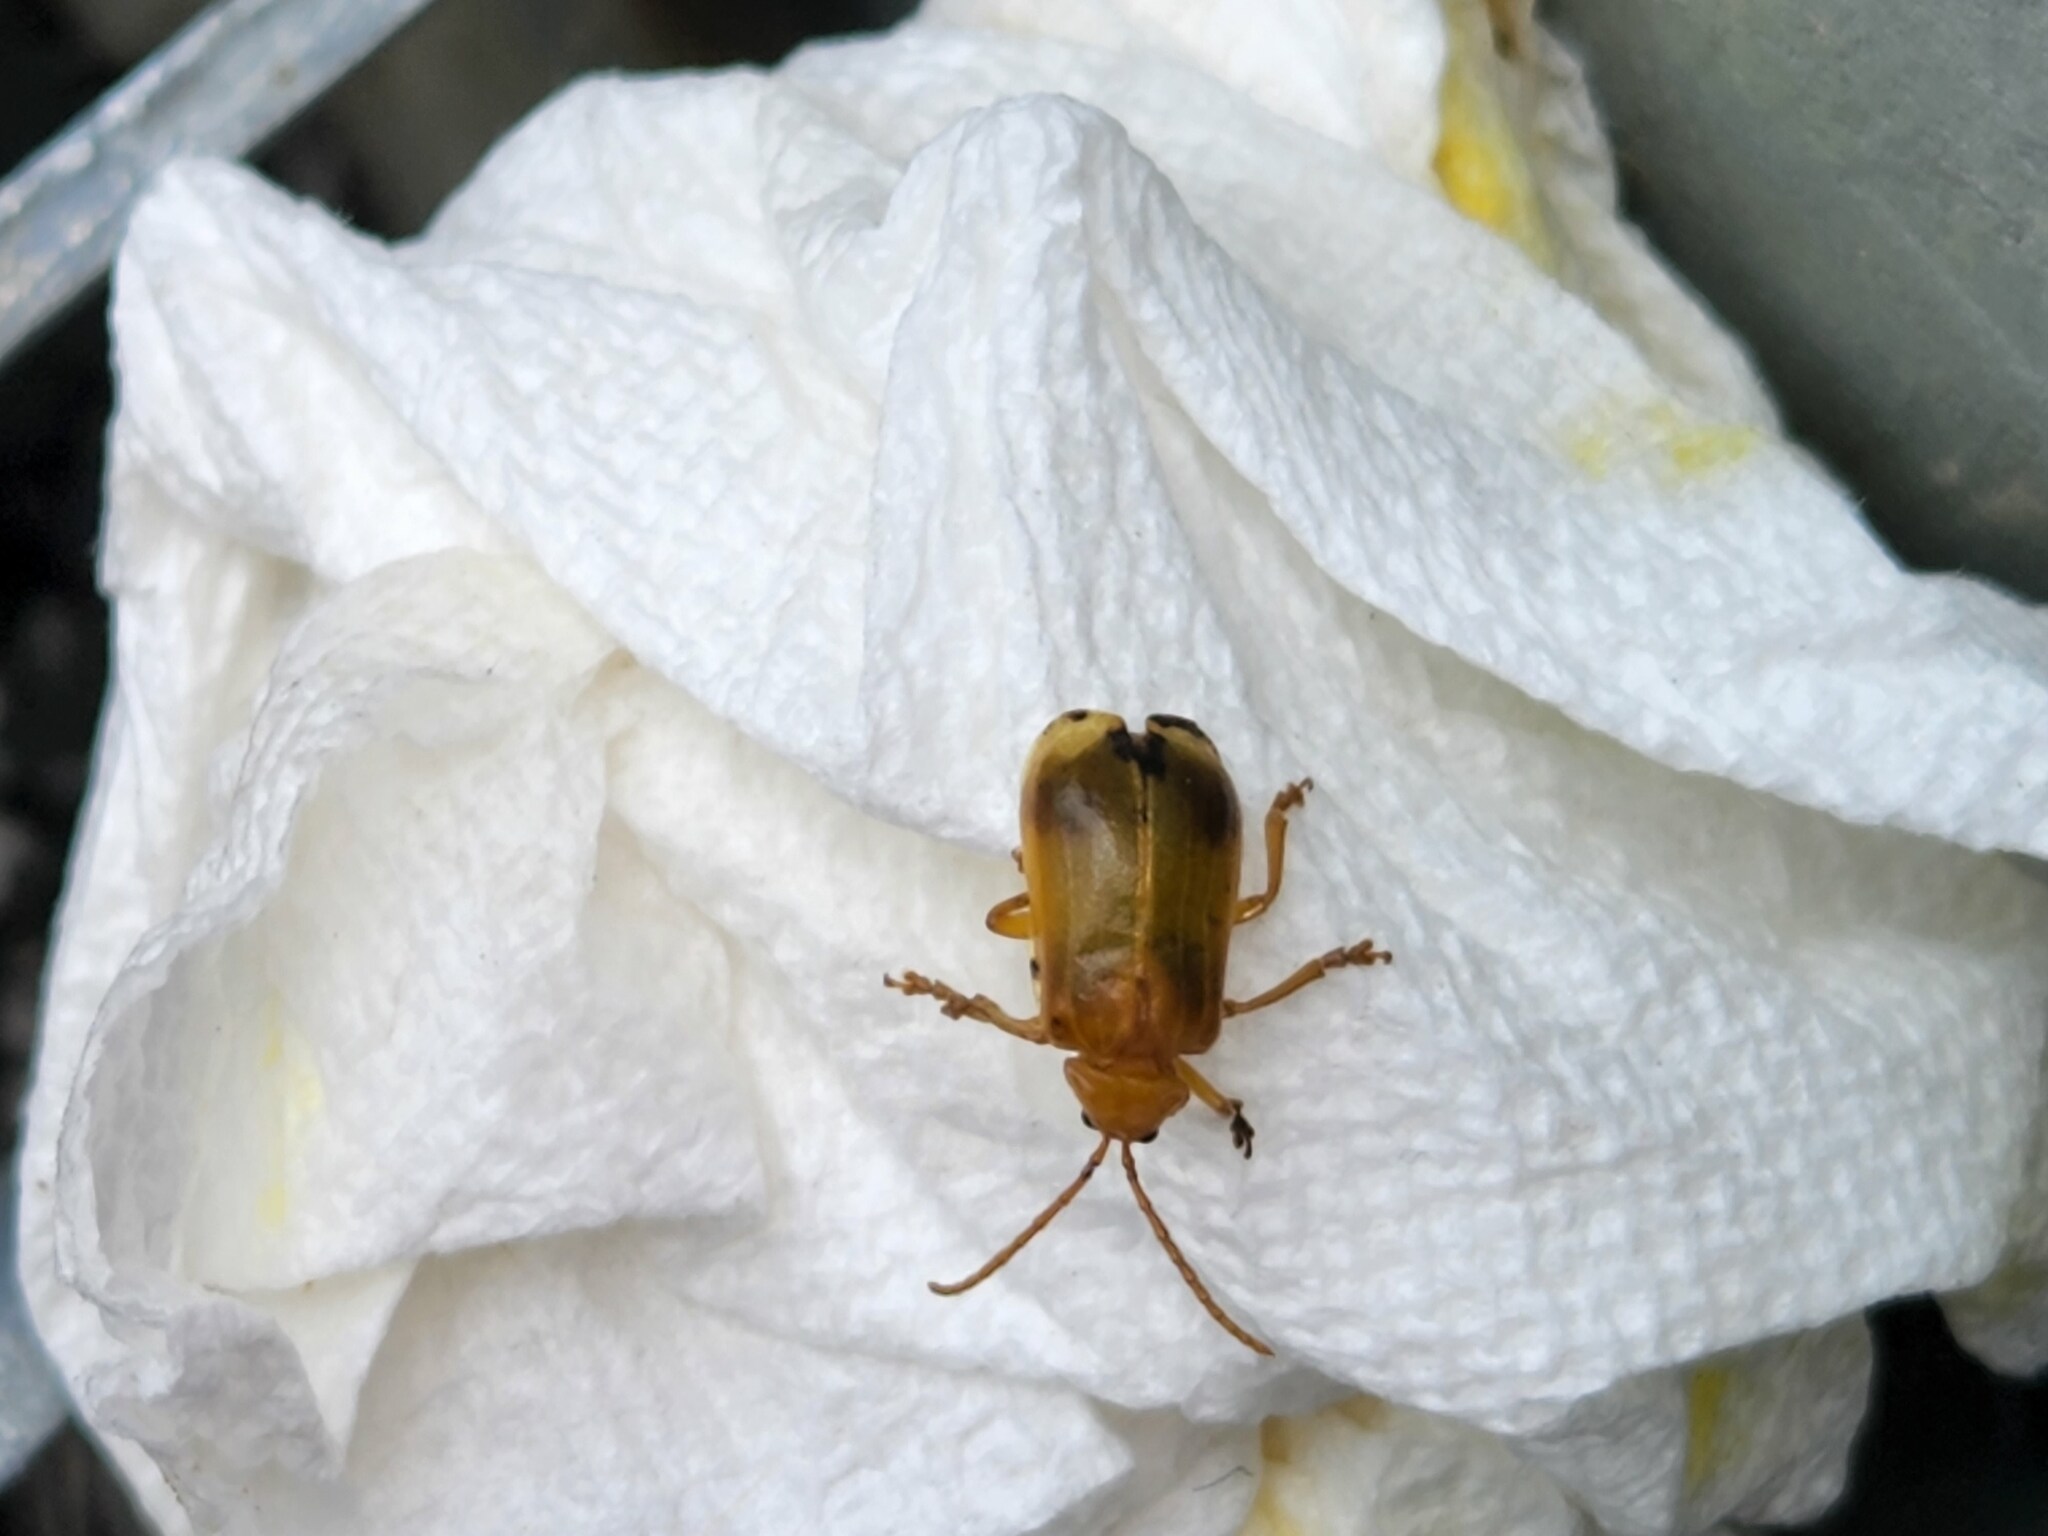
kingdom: Animalia
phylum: Arthropoda
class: Insecta
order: Coleoptera
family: Chrysomelidae
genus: Monocesta
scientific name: Monocesta coryli
